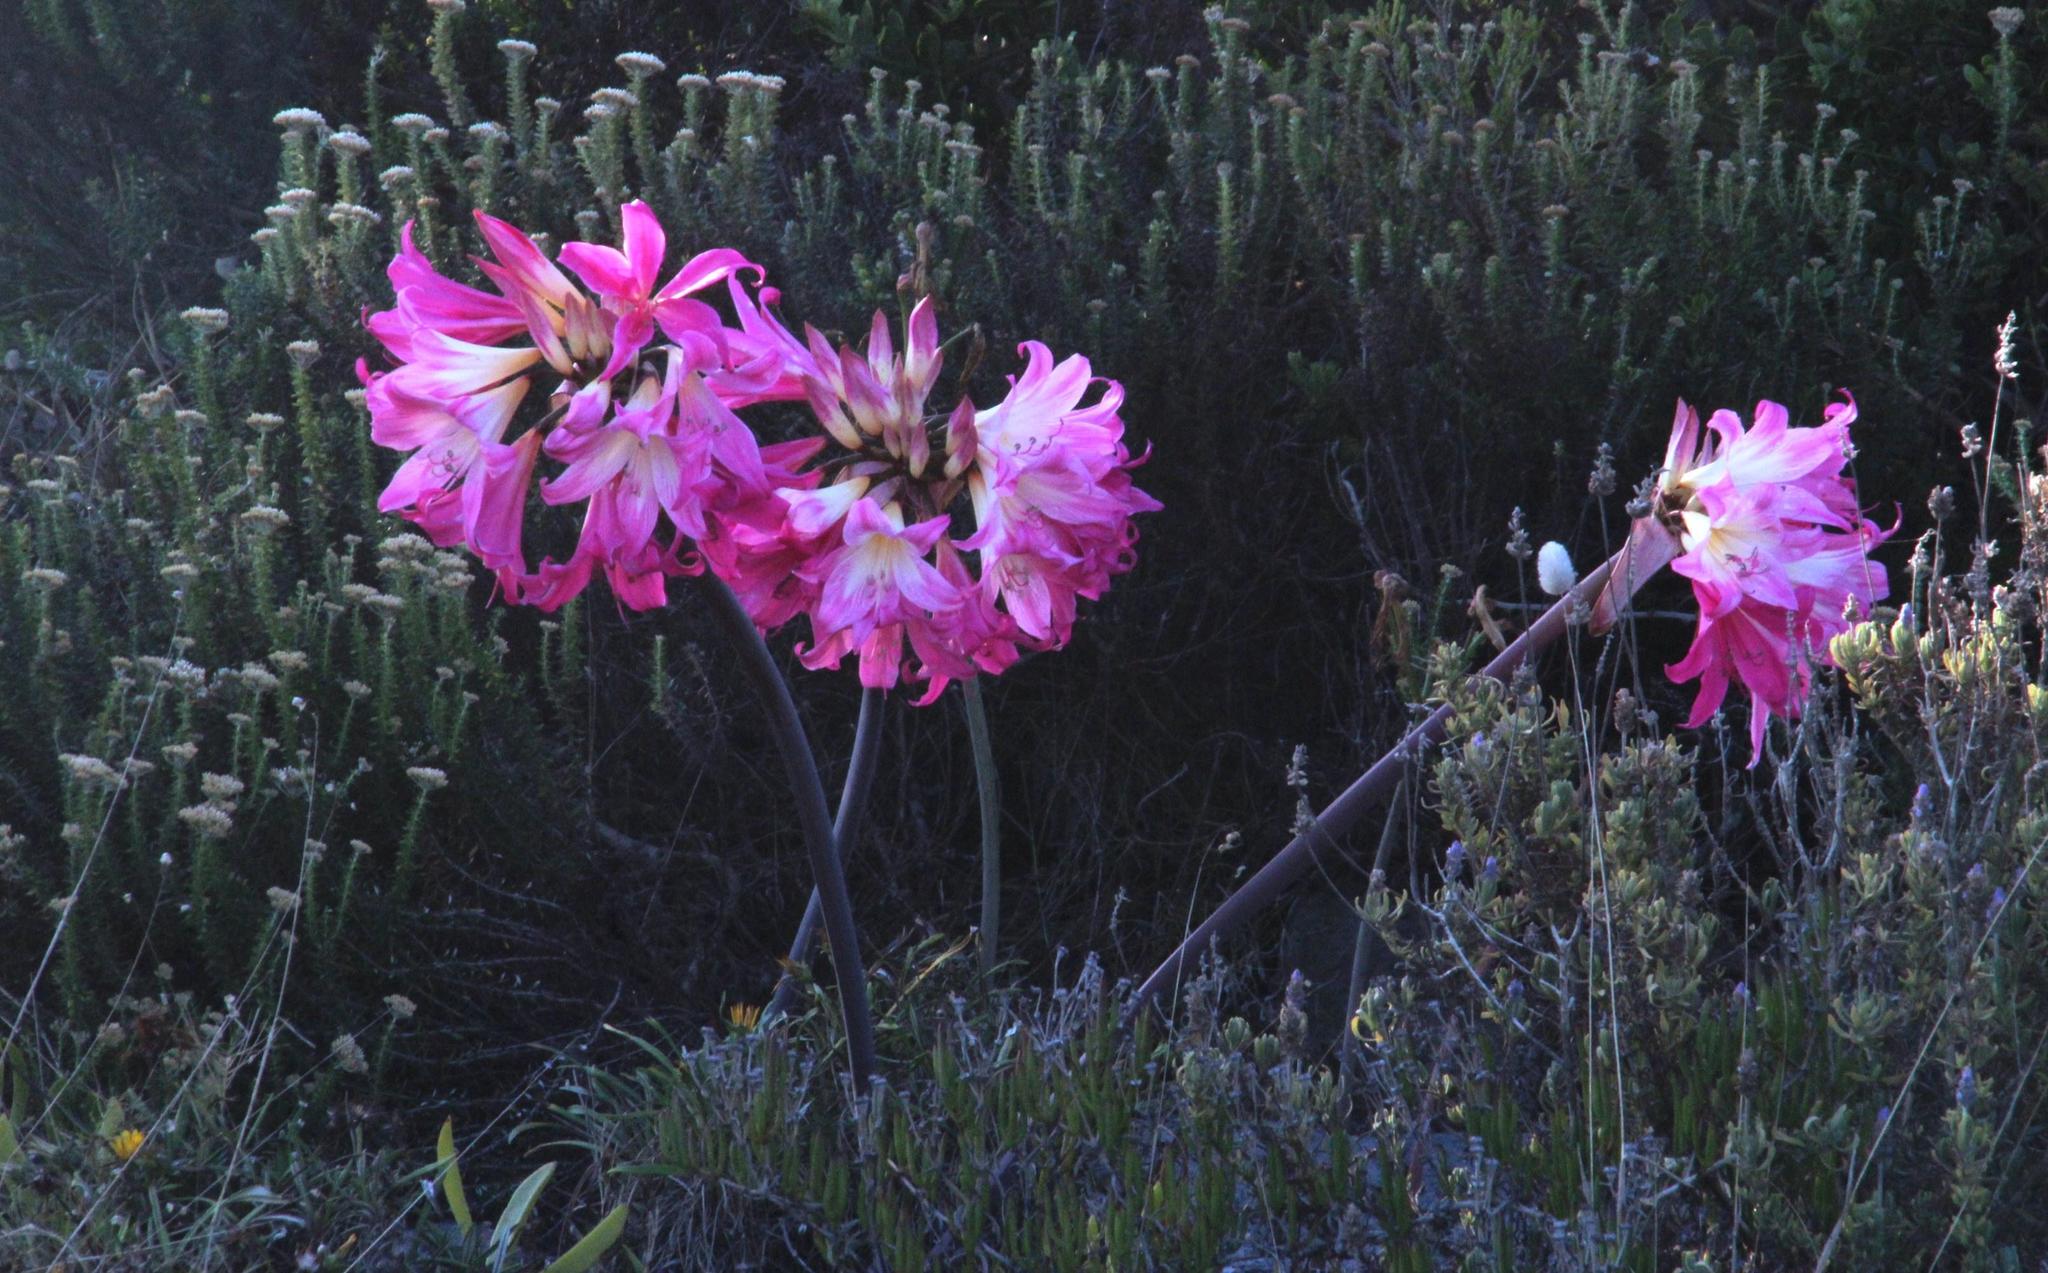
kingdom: Plantae
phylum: Tracheophyta
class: Liliopsida
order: Asparagales
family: Amaryllidaceae
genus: Amaryllis
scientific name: Amaryllis belladonna
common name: Jersey lily
